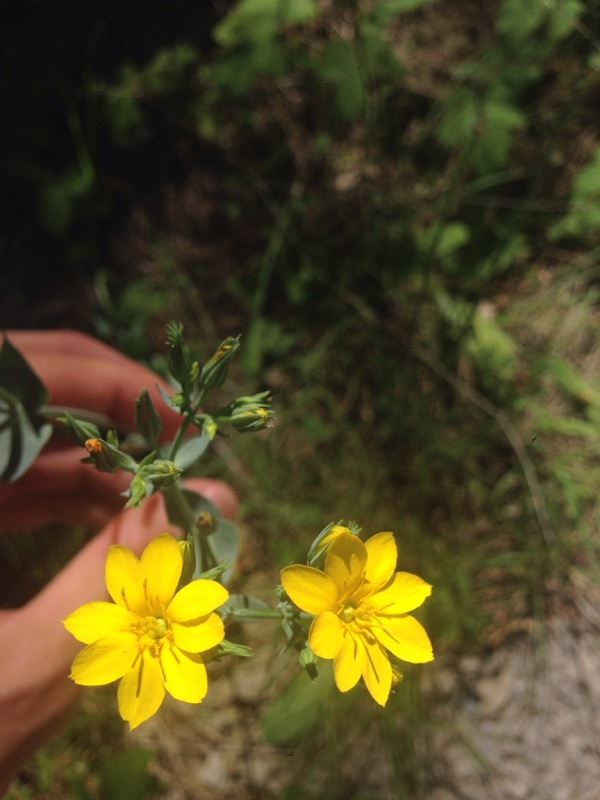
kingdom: Plantae
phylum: Tracheophyta
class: Magnoliopsida
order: Gentianales
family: Gentianaceae
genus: Blackstonia
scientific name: Blackstonia perfoliata
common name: Yellow-wort
